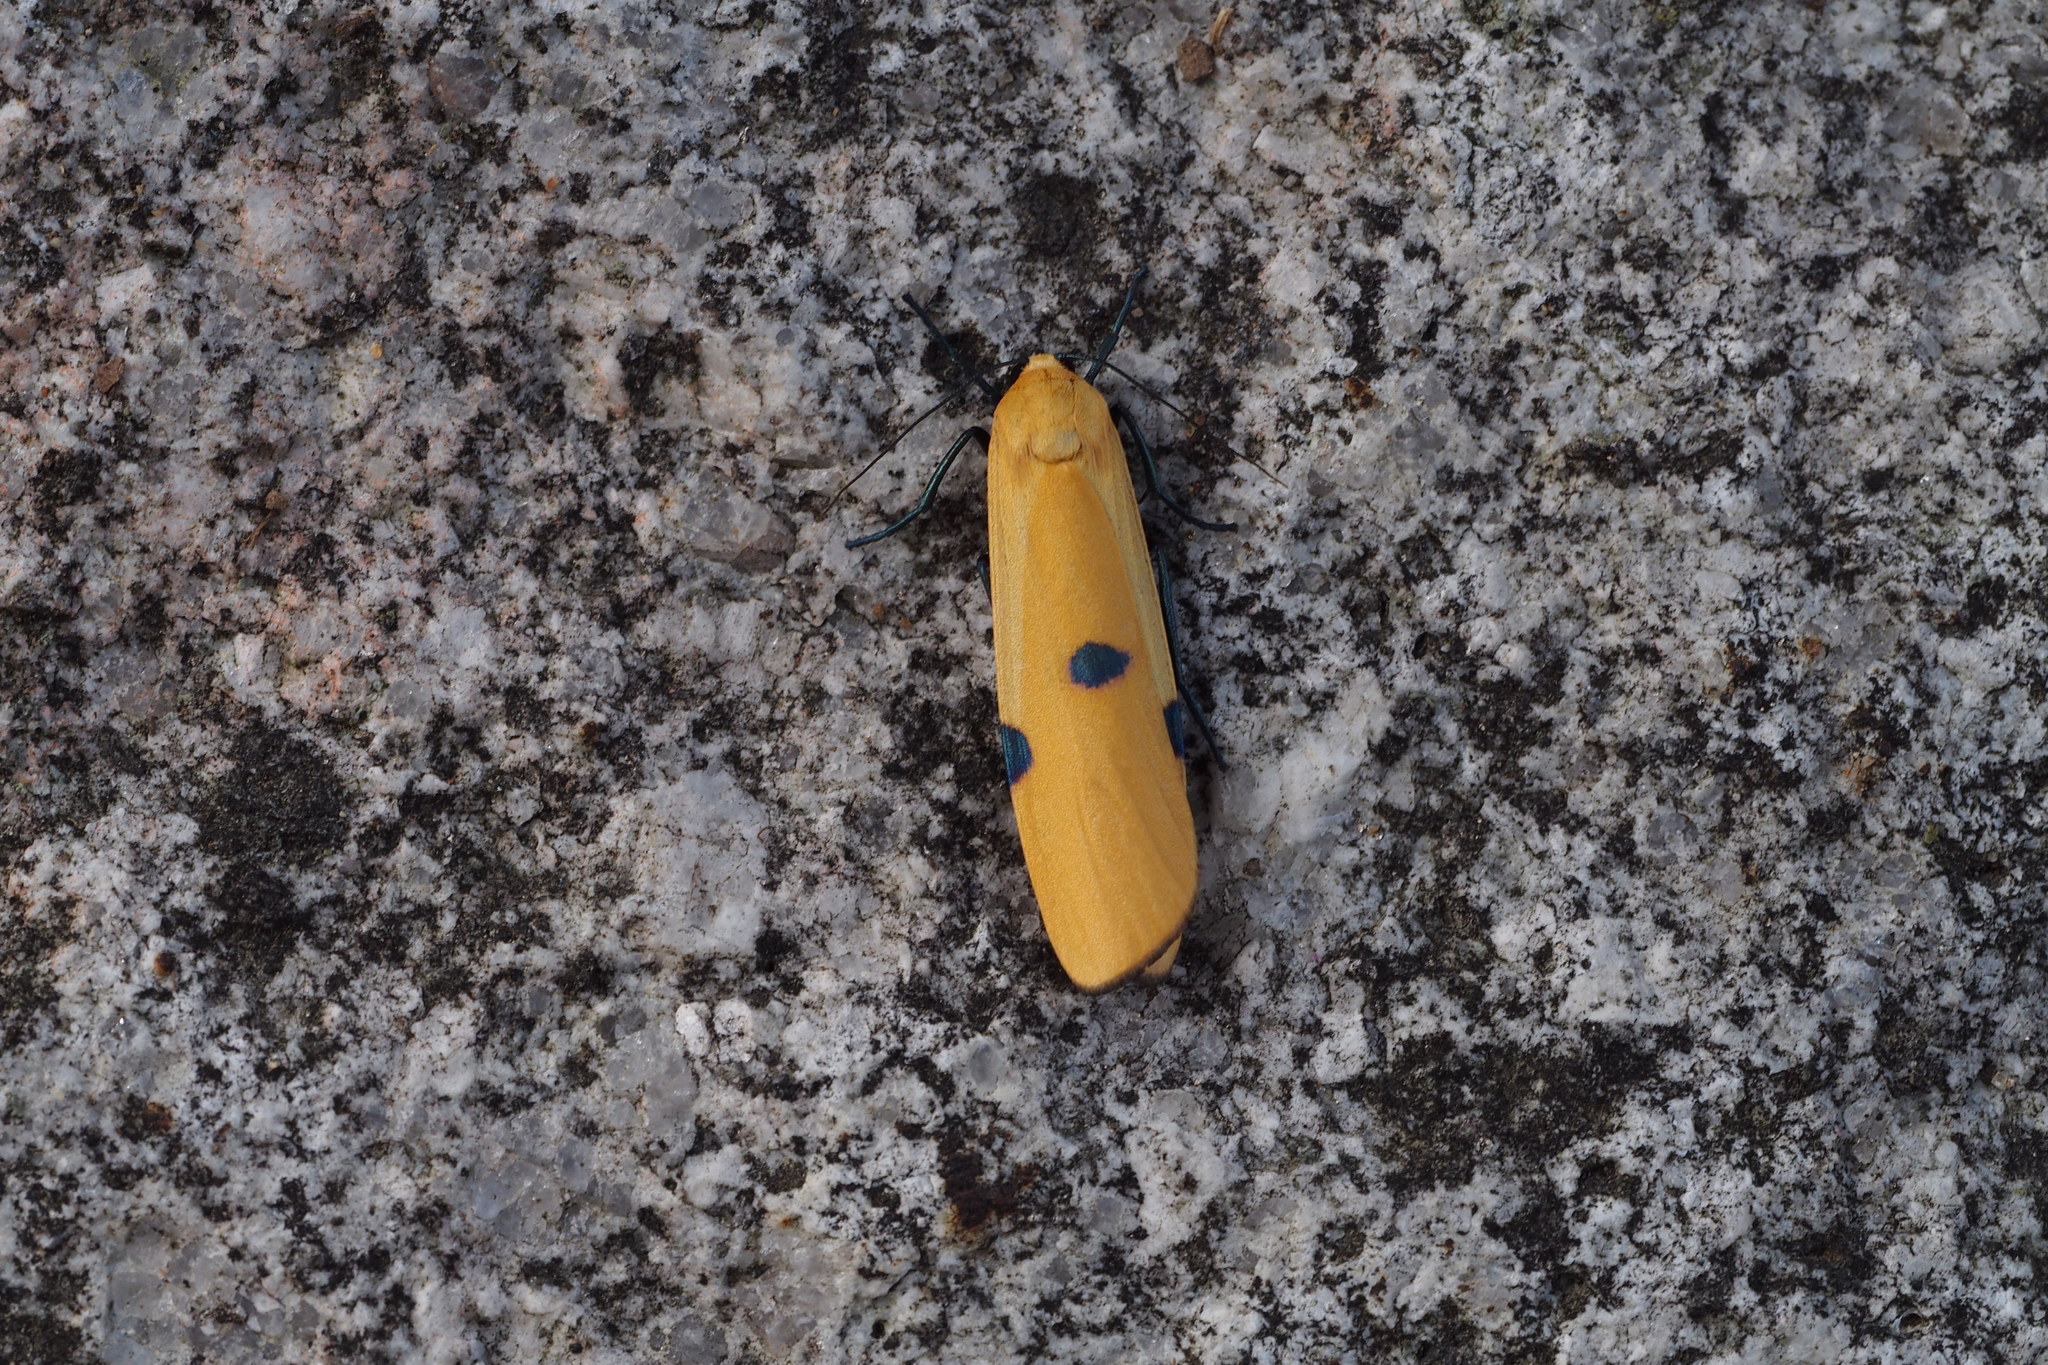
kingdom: Animalia
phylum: Arthropoda
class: Insecta
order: Lepidoptera
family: Erebidae
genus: Lithosia
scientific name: Lithosia quadra
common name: Four-spotted footman
